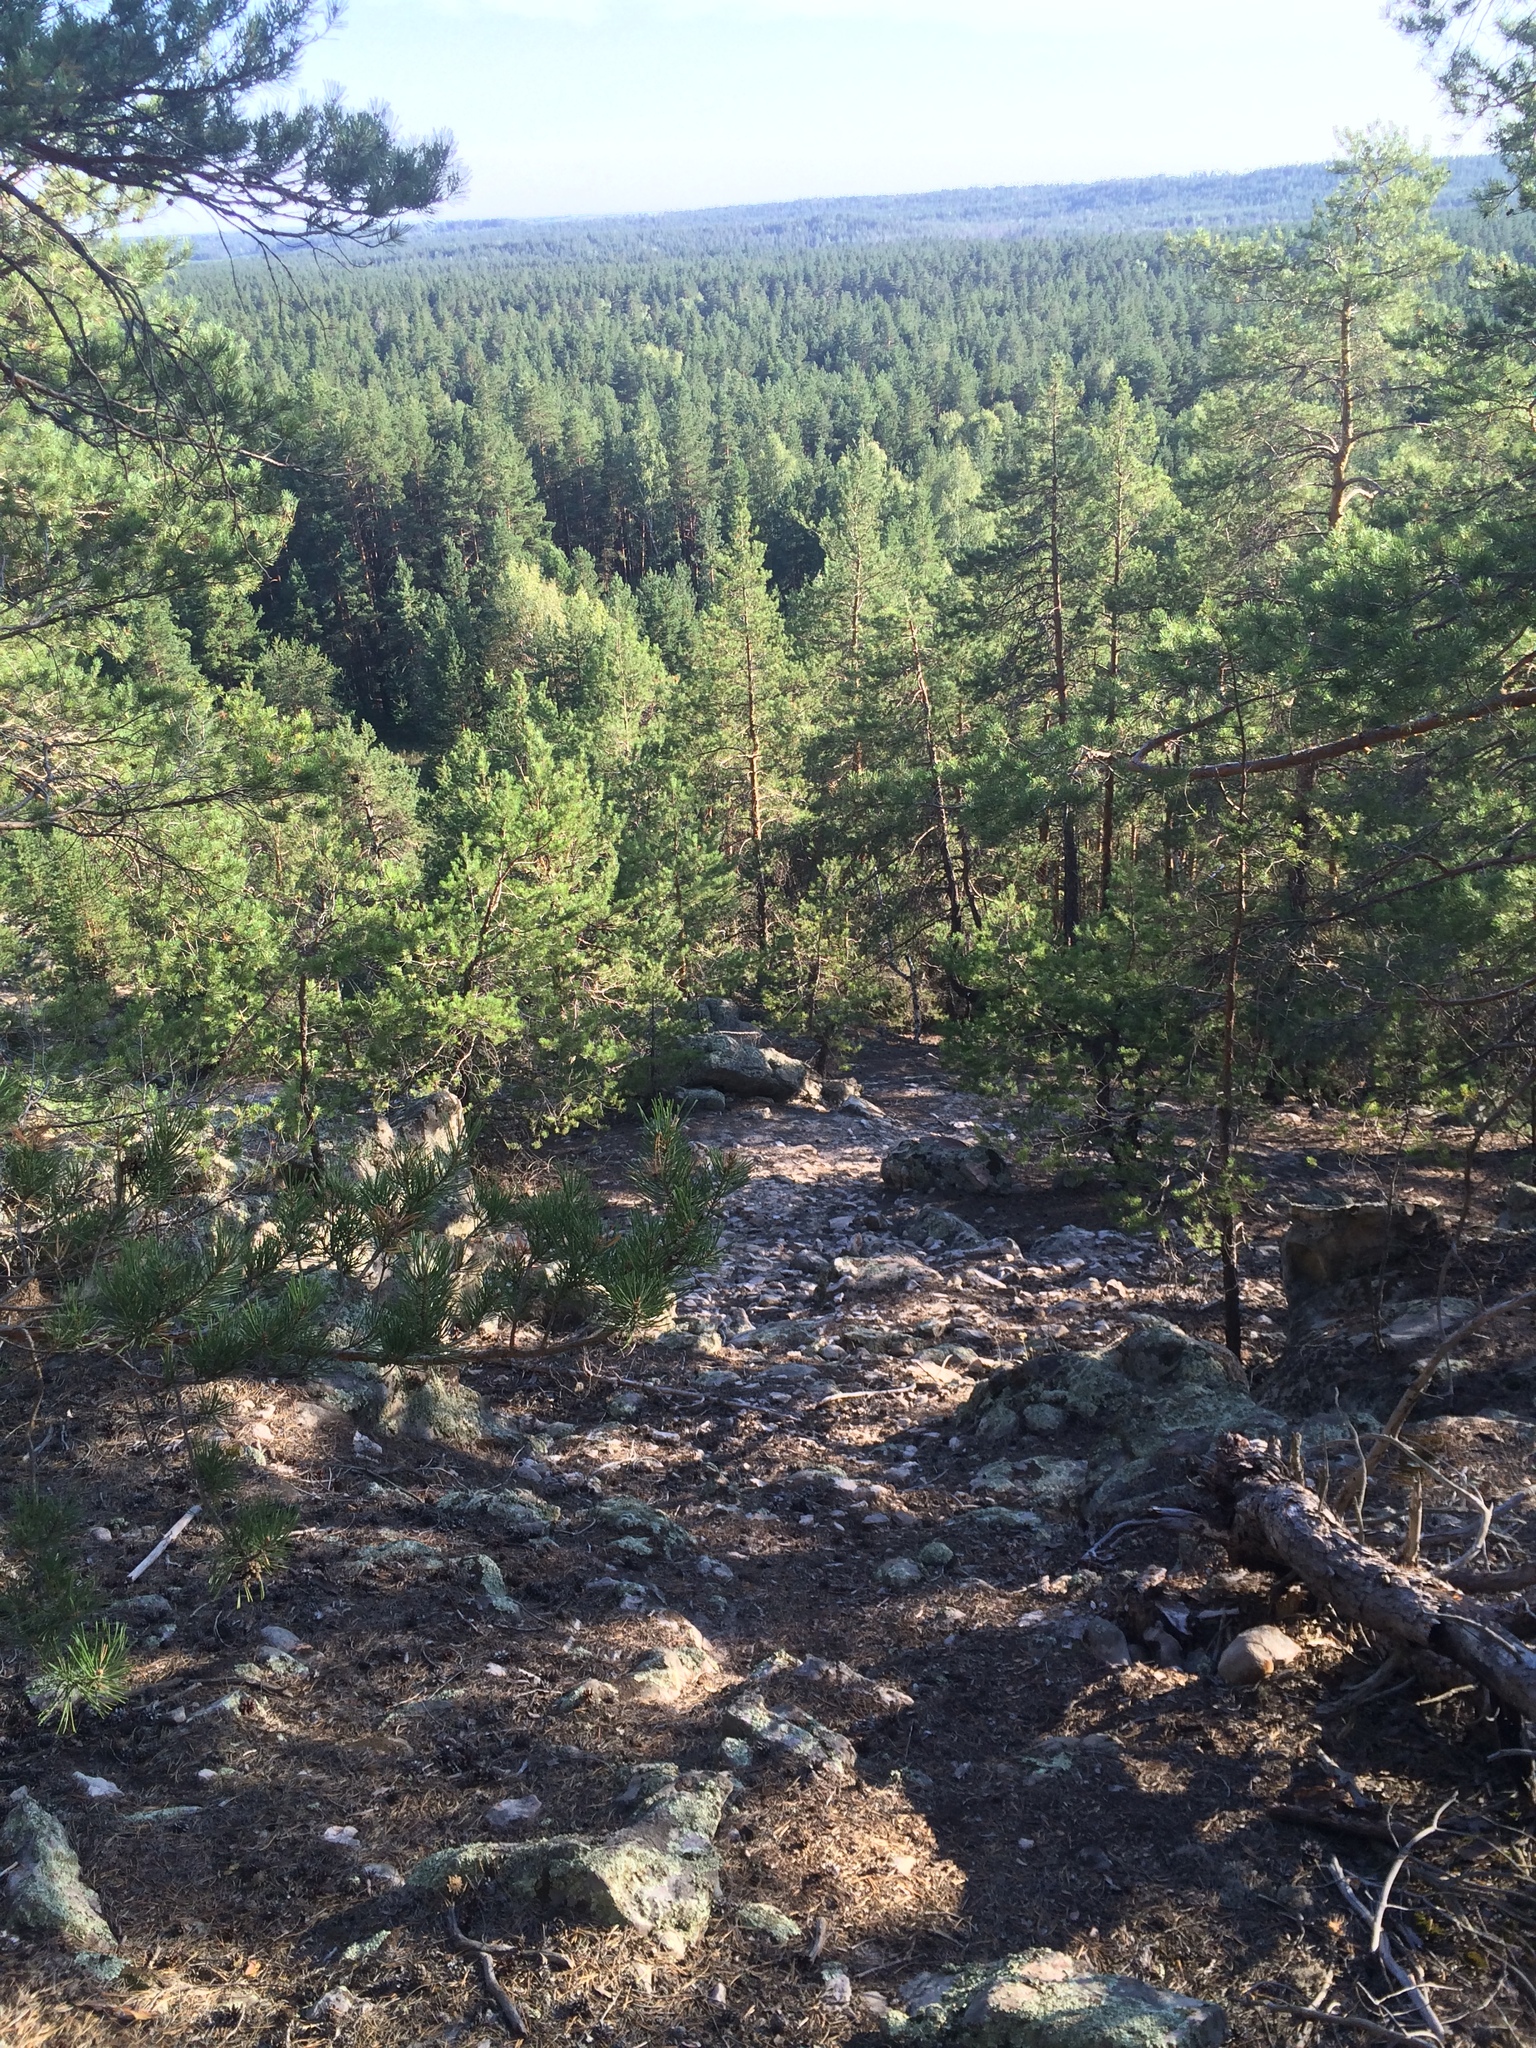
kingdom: Plantae
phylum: Tracheophyta
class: Pinopsida
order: Pinales
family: Pinaceae
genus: Pinus
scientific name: Pinus sylvestris
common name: Scots pine
